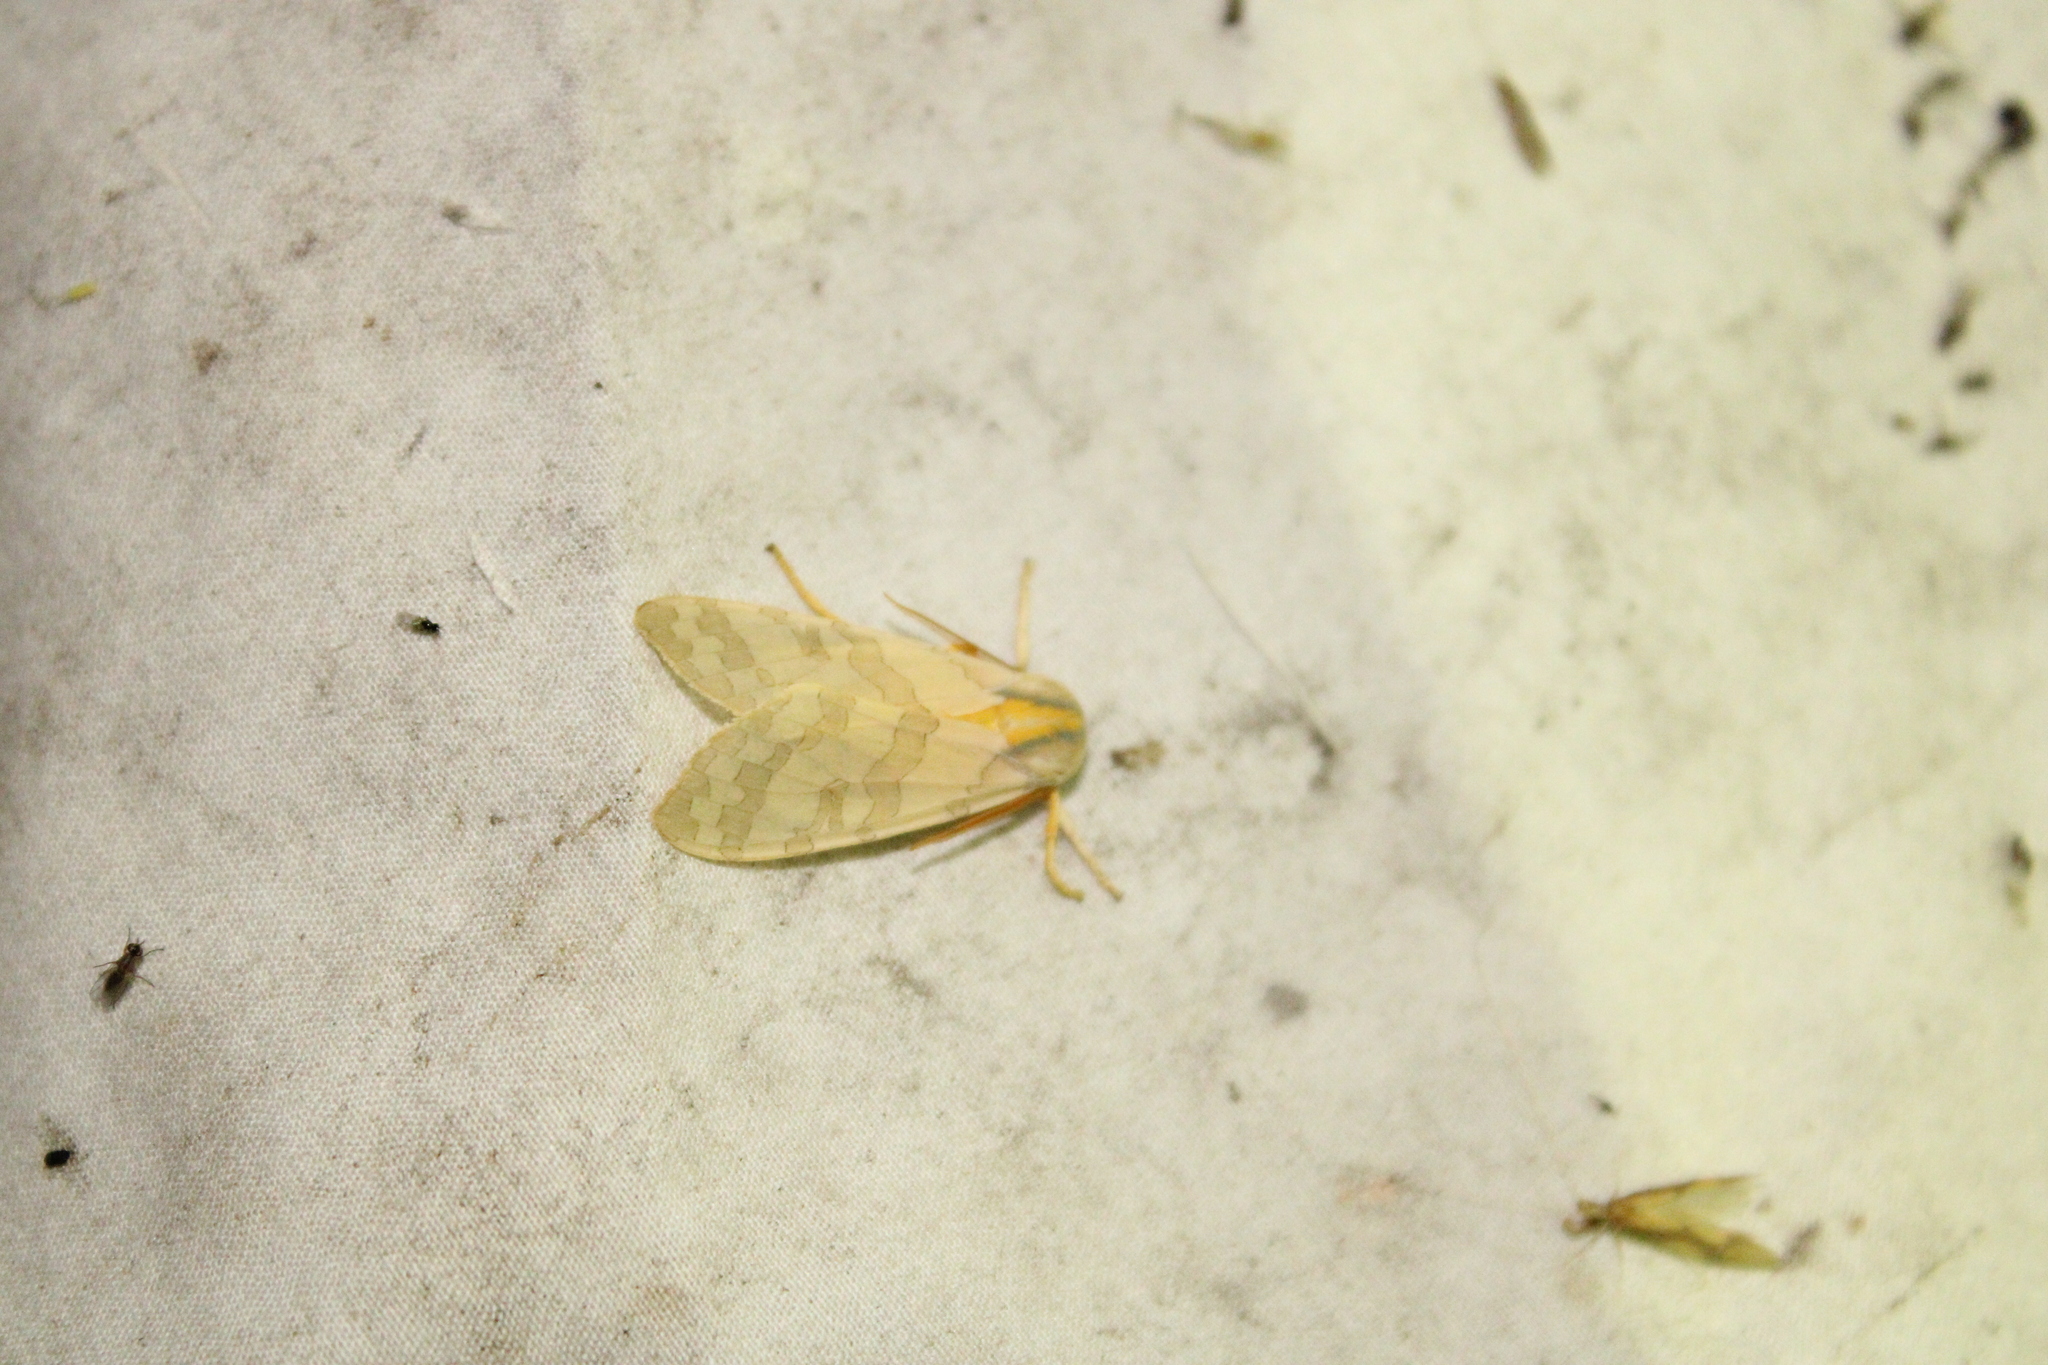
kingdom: Animalia
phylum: Arthropoda
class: Insecta
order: Lepidoptera
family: Erebidae
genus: Halysidota
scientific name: Halysidota
